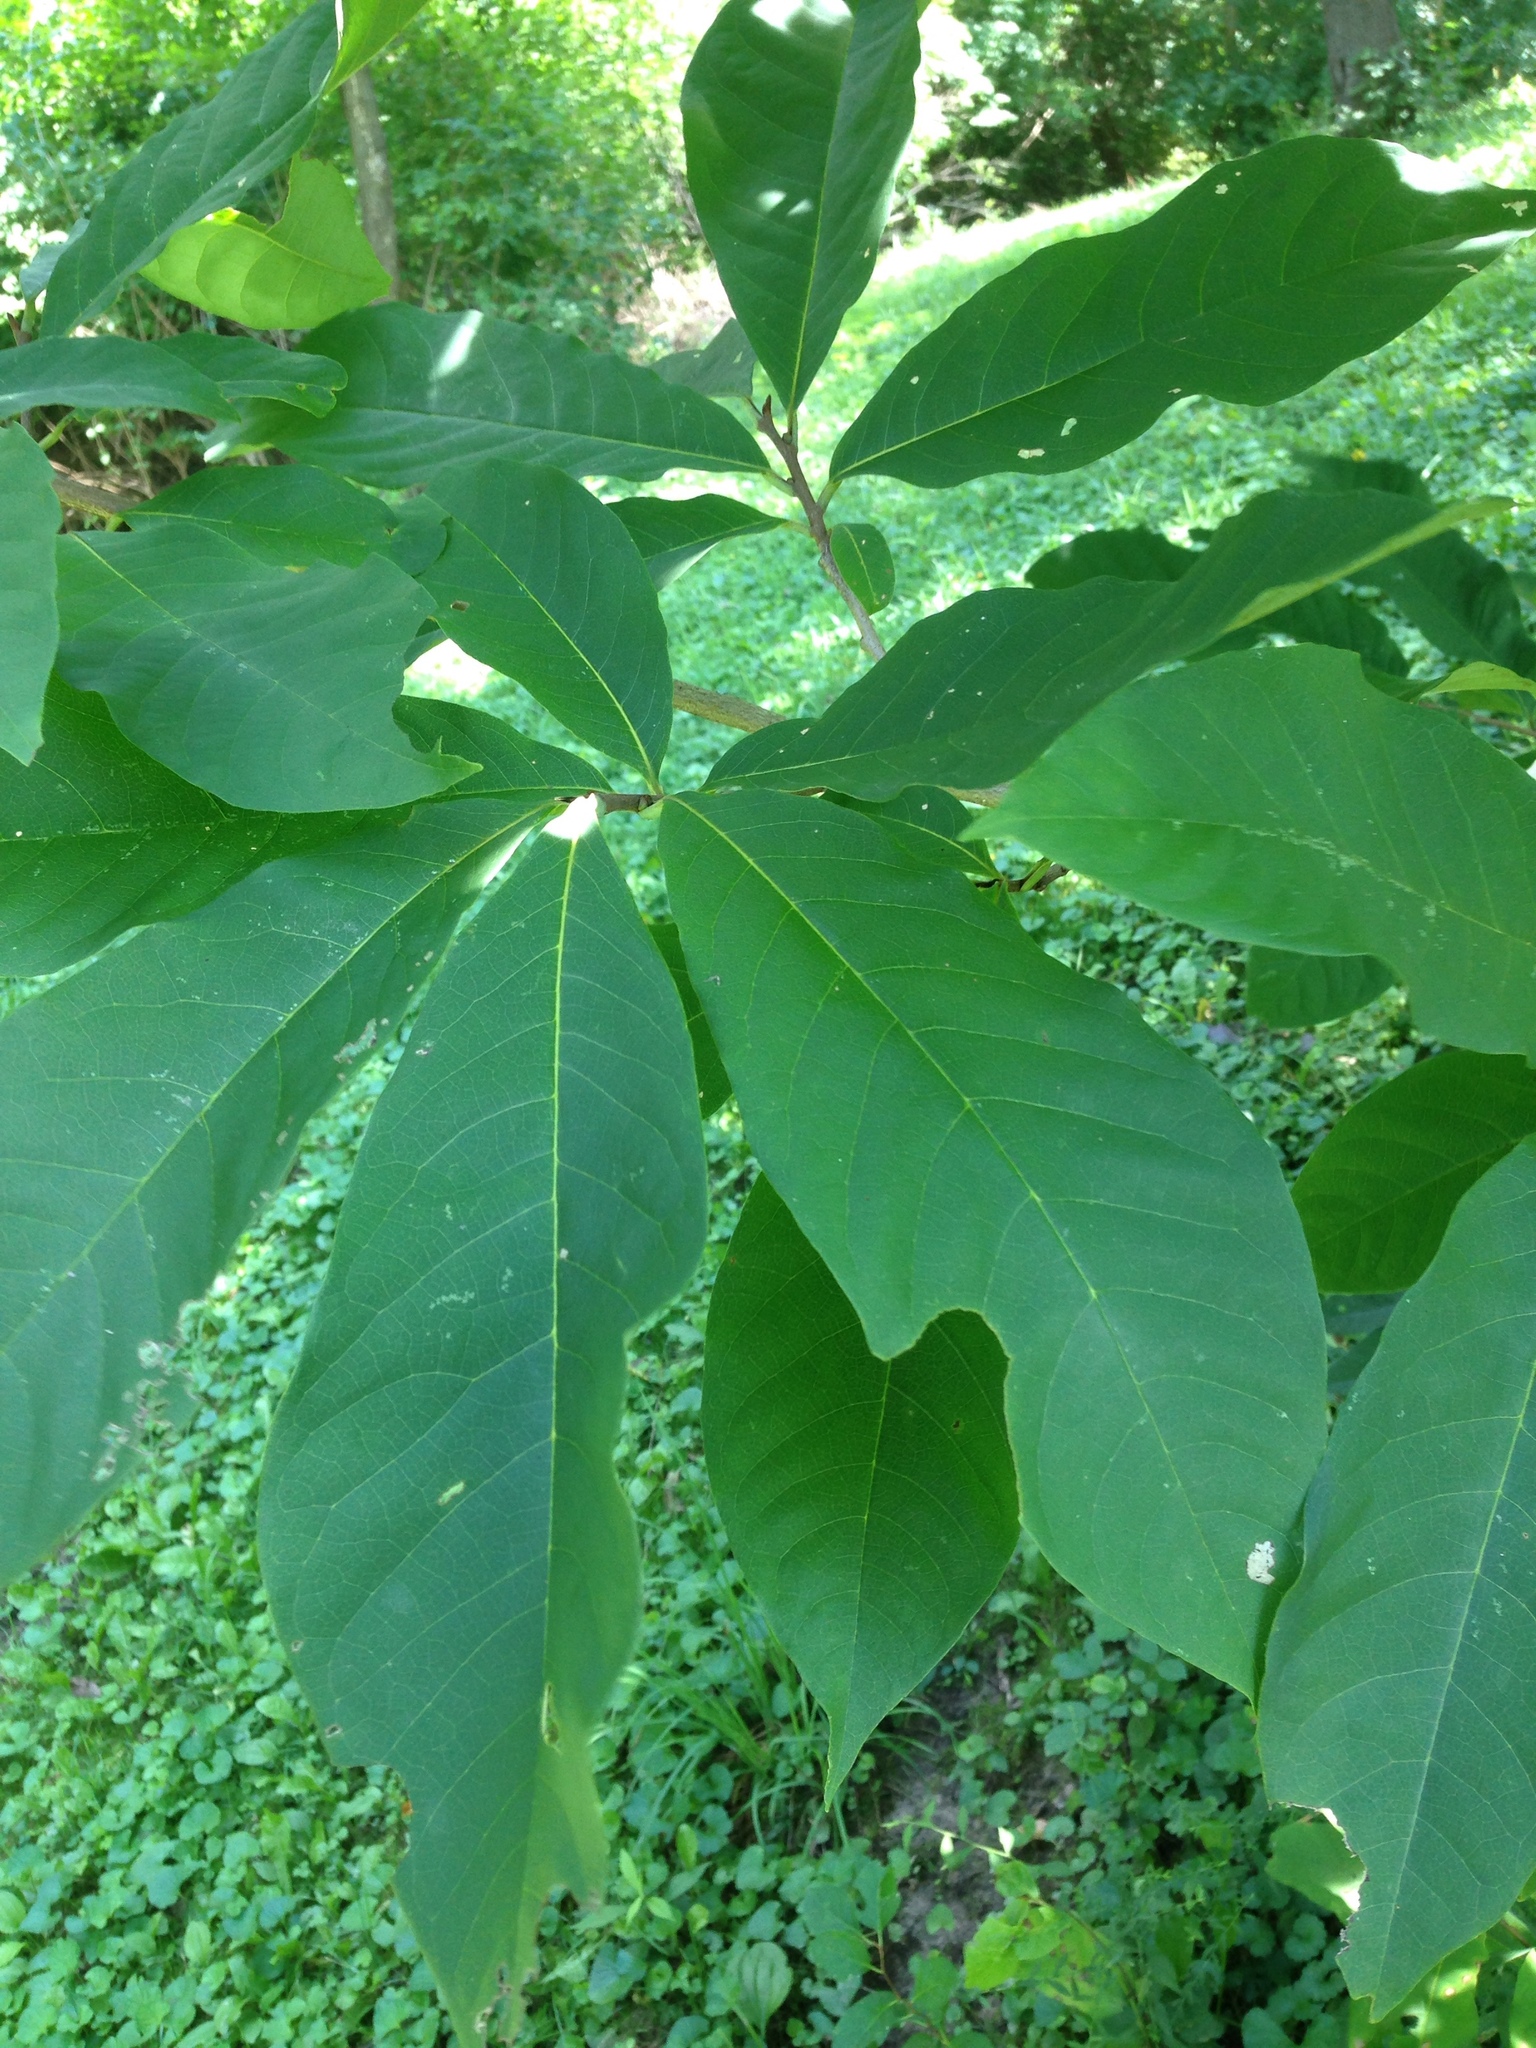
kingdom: Plantae
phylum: Tracheophyta
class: Magnoliopsida
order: Magnoliales
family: Annonaceae
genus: Asimina
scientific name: Asimina triloba
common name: Dog-banana
